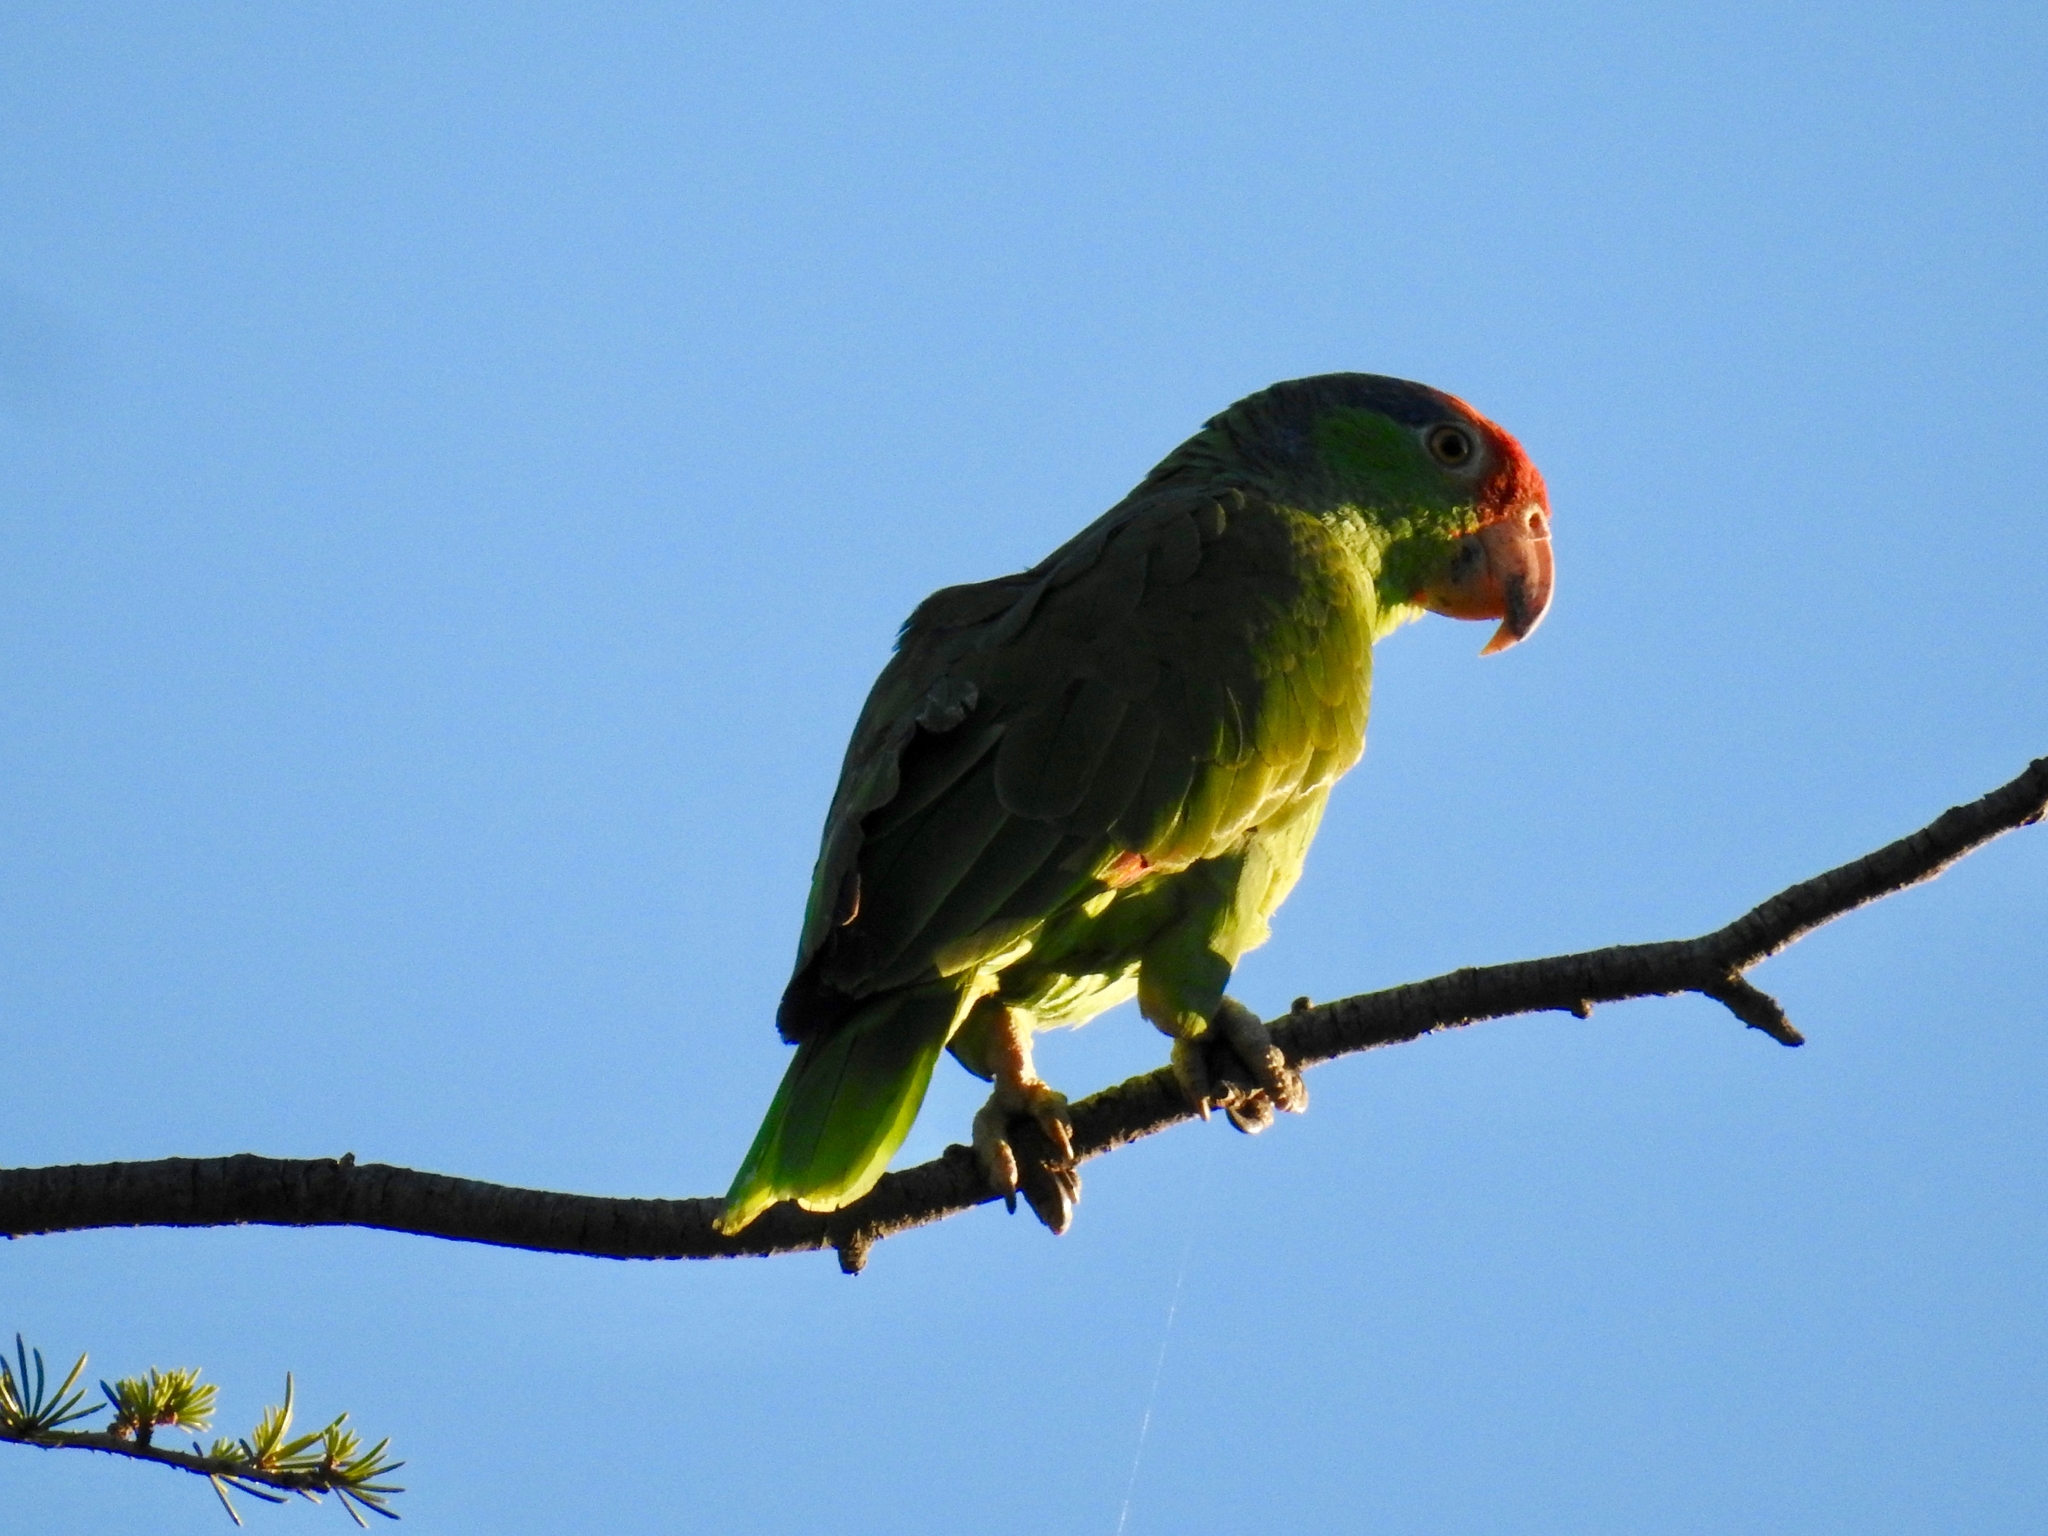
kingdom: Animalia
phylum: Chordata
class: Aves
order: Psittaciformes
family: Psittacidae
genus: Amazona
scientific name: Amazona viridigenalis
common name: Red-crowned amazon
